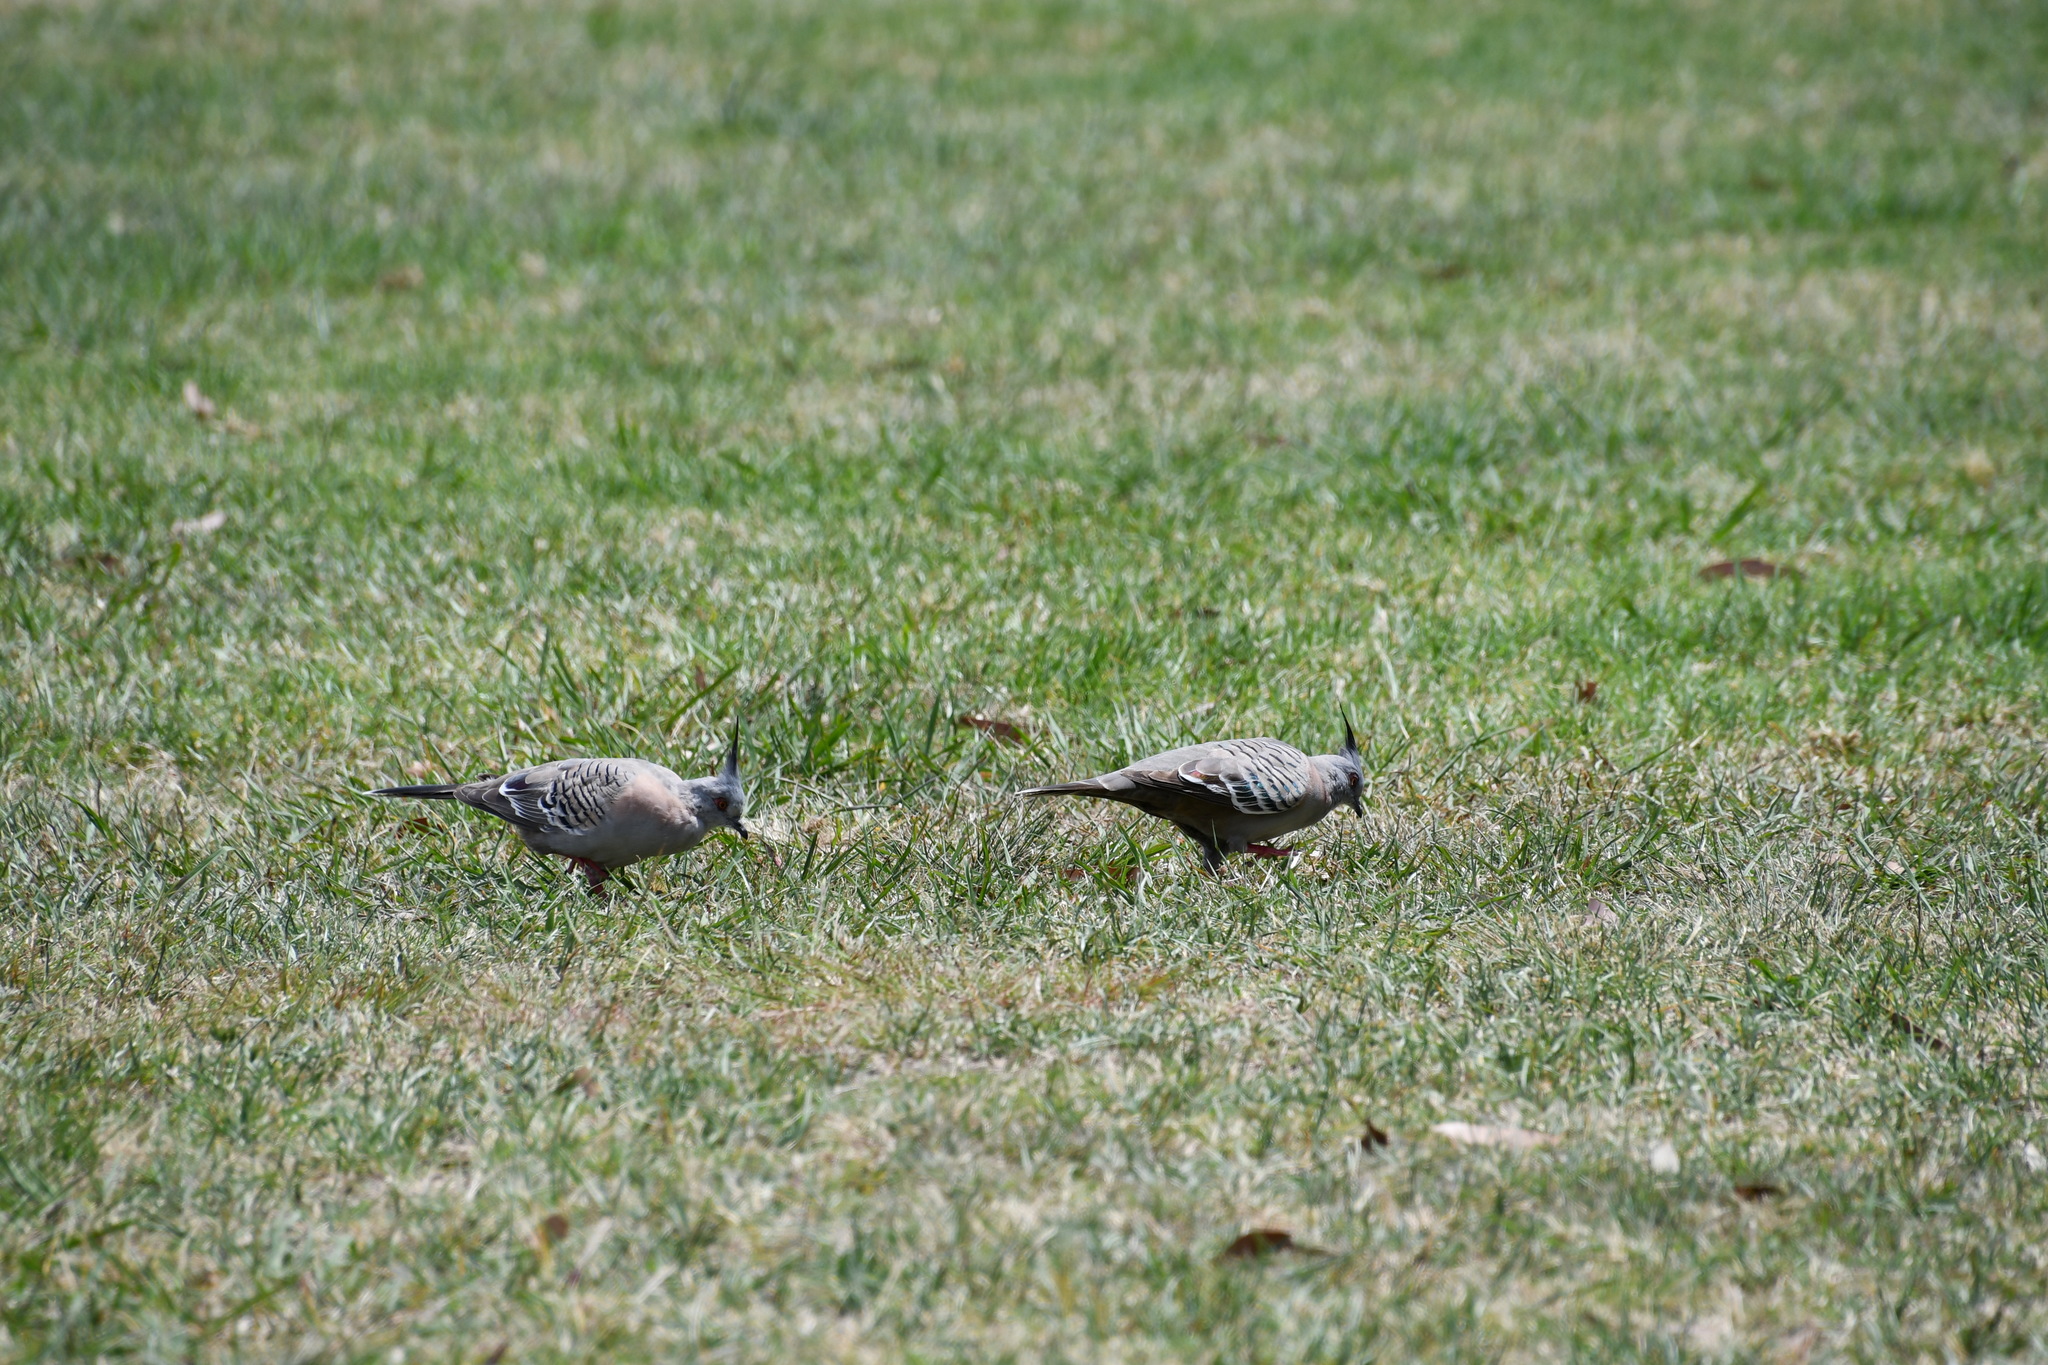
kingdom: Animalia
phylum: Chordata
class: Aves
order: Columbiformes
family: Columbidae
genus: Ocyphaps
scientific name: Ocyphaps lophotes
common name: Crested pigeon
